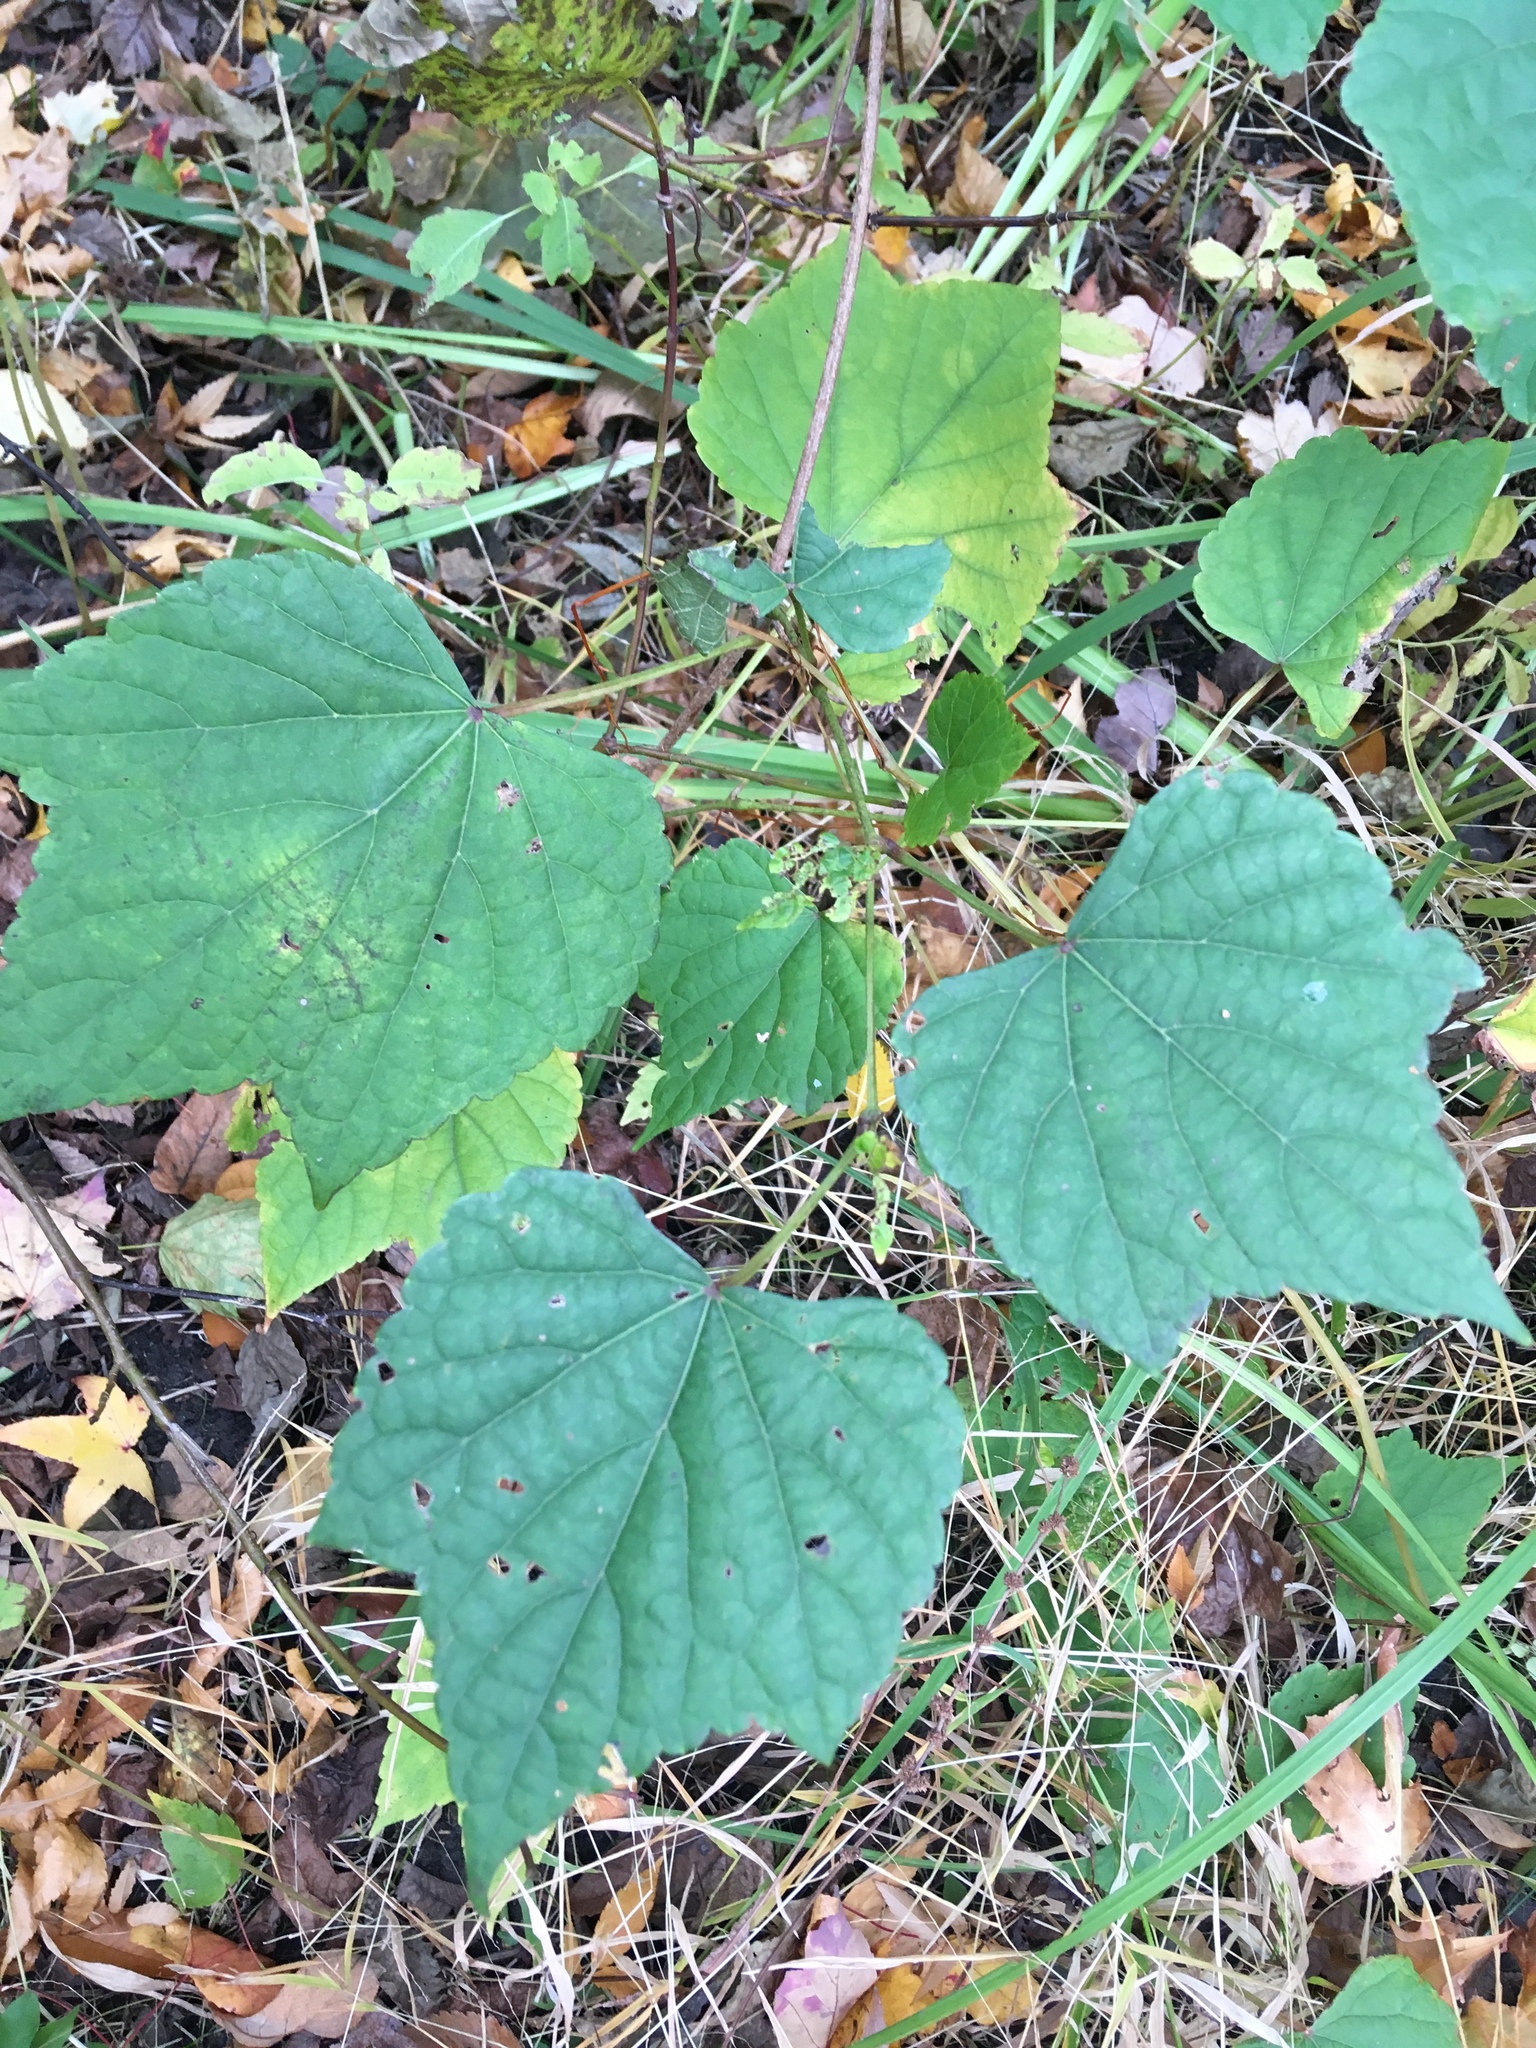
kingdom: Plantae
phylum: Tracheophyta
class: Magnoliopsida
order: Vitales
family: Vitaceae
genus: Ampelopsis
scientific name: Ampelopsis glandulosa
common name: Amur peppervine
